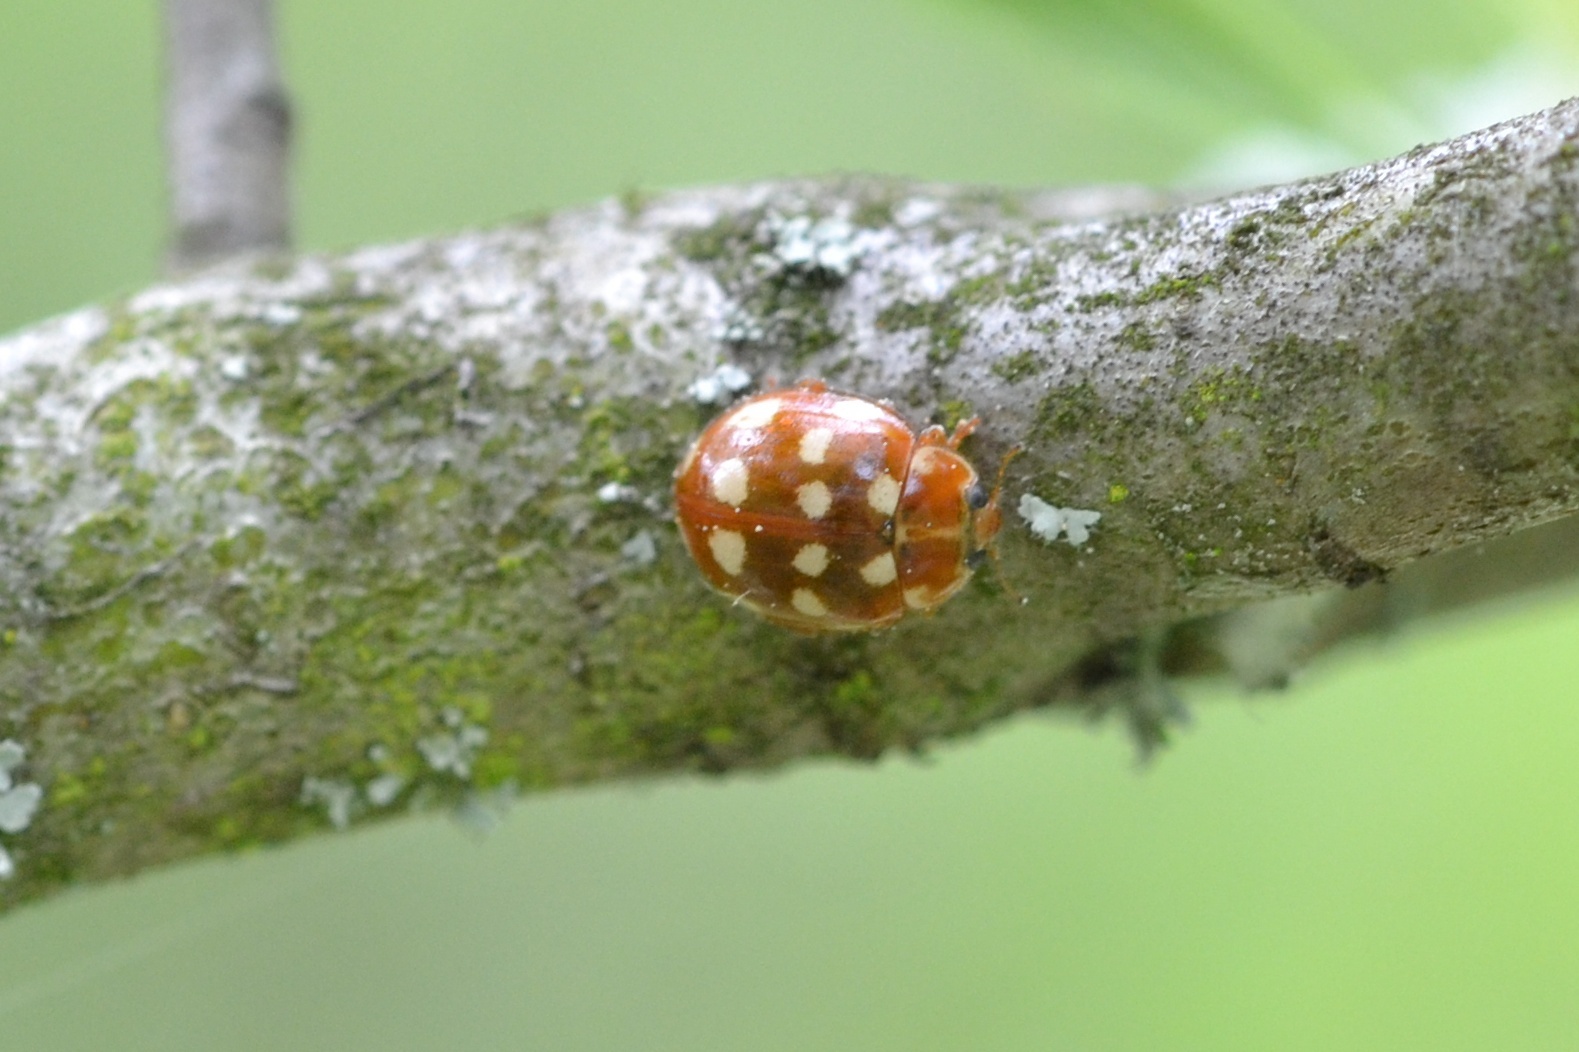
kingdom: Animalia
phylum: Arthropoda
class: Insecta
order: Coleoptera
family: Coccinellidae
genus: Calvia
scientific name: Calvia quatuordecimguttata
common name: Cream-spot ladybird
